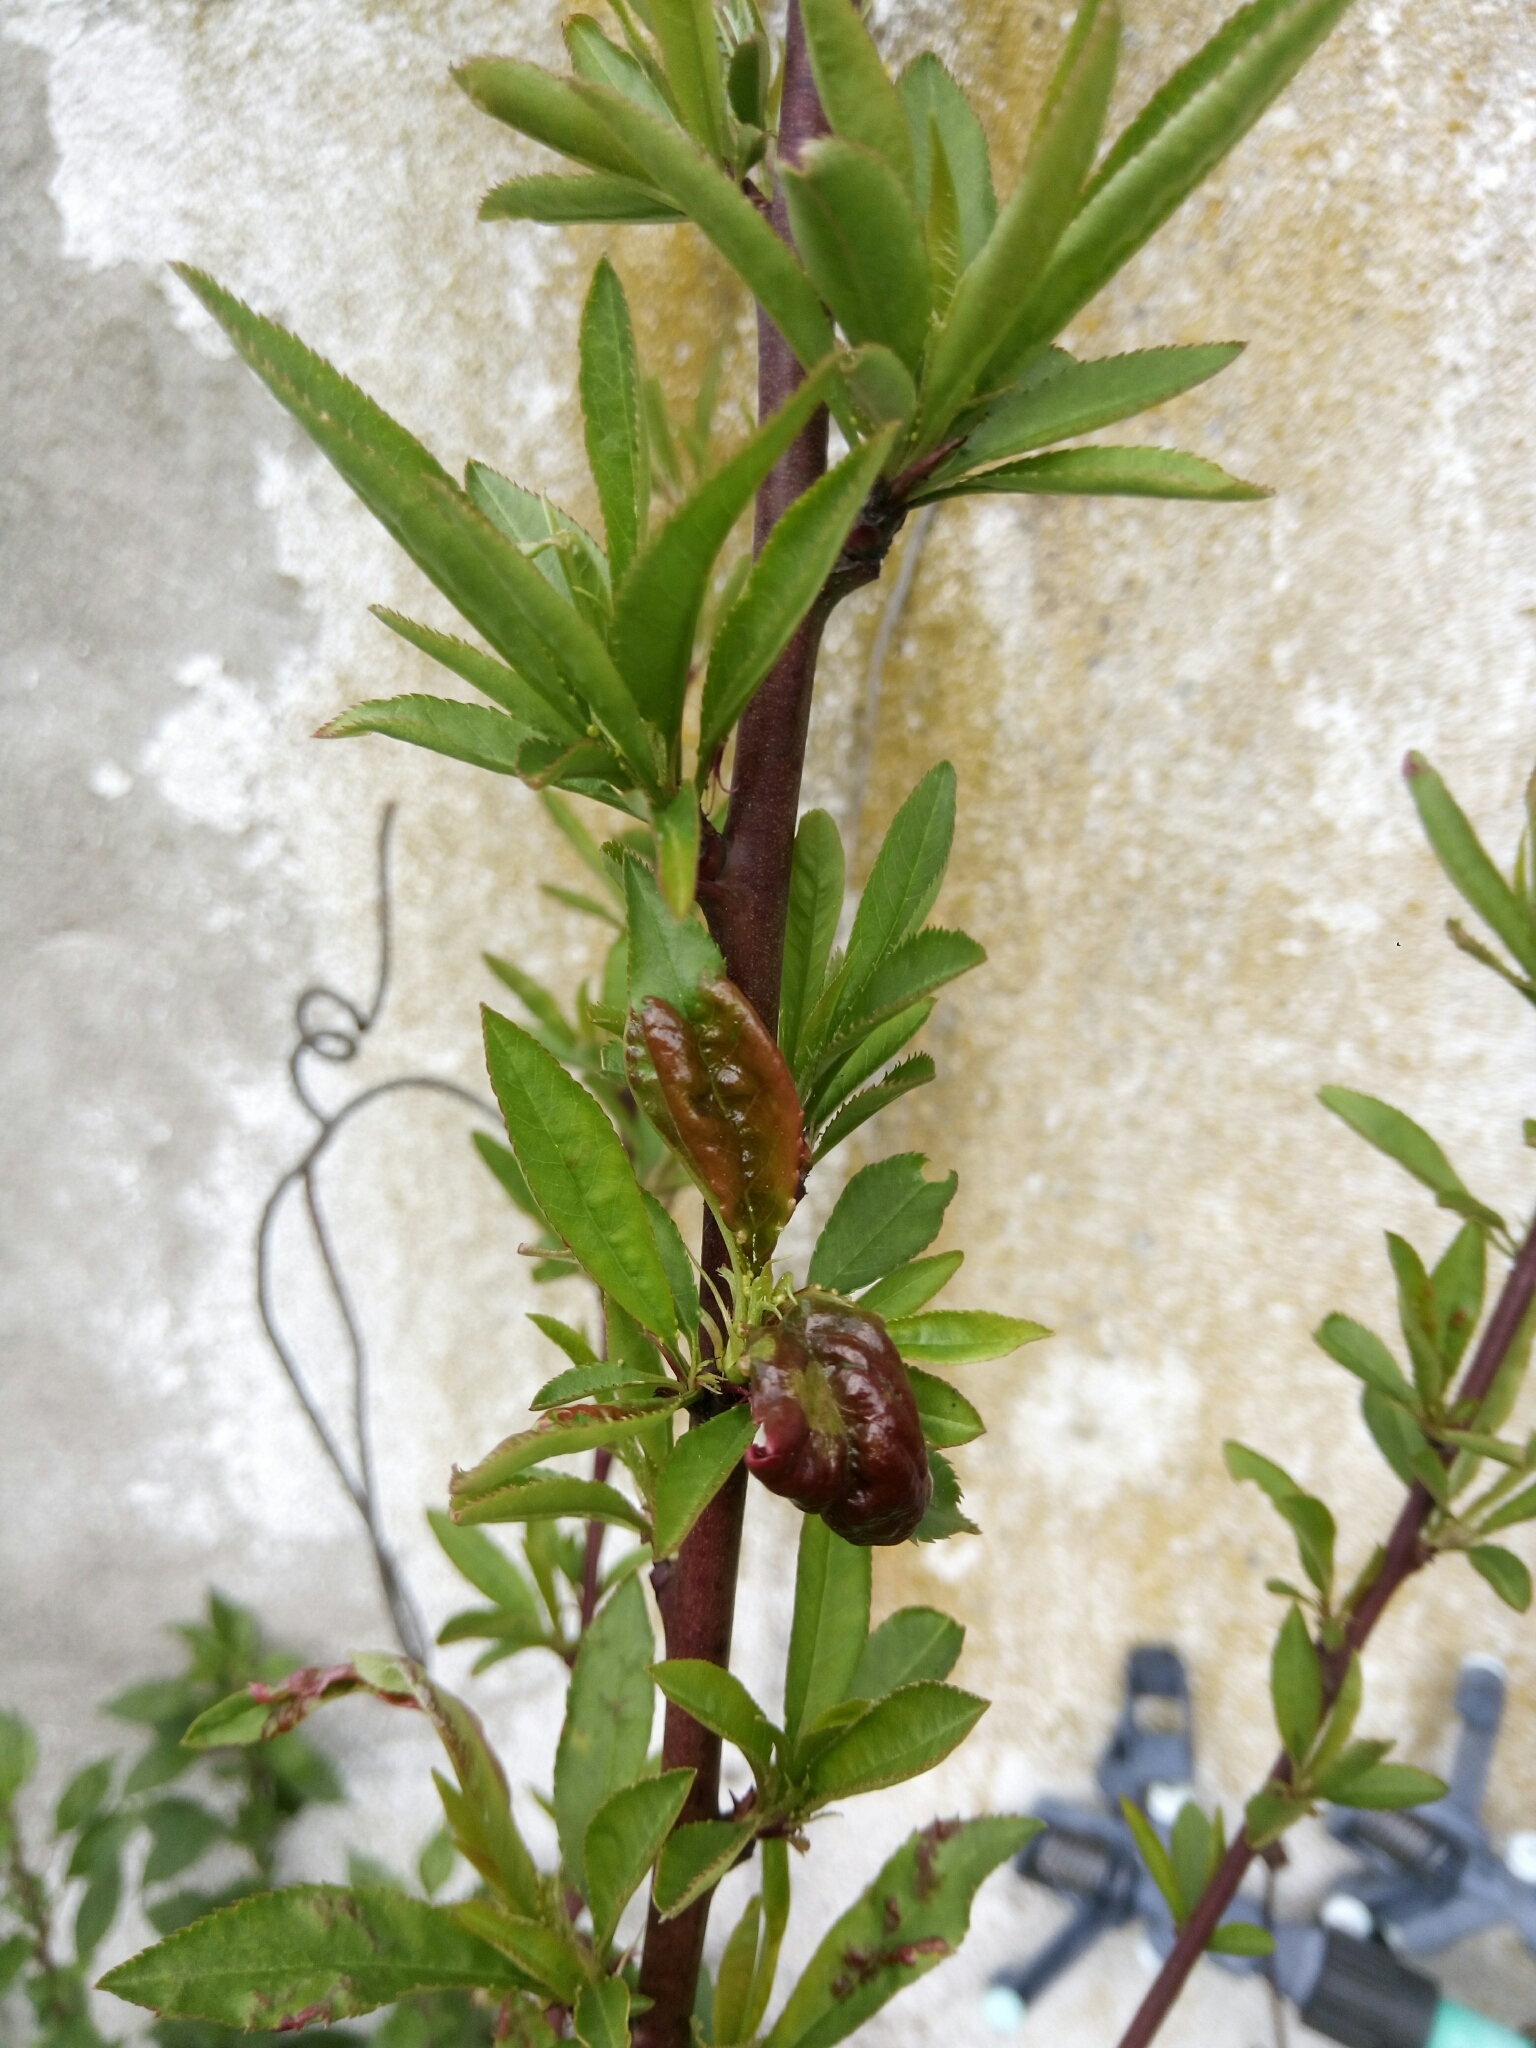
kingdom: Fungi
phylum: Ascomycota
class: Taphrinomycetes
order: Taphrinales
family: Taphrinaceae
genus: Taphrina
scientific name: Taphrina deformans
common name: Peach leaf curl
